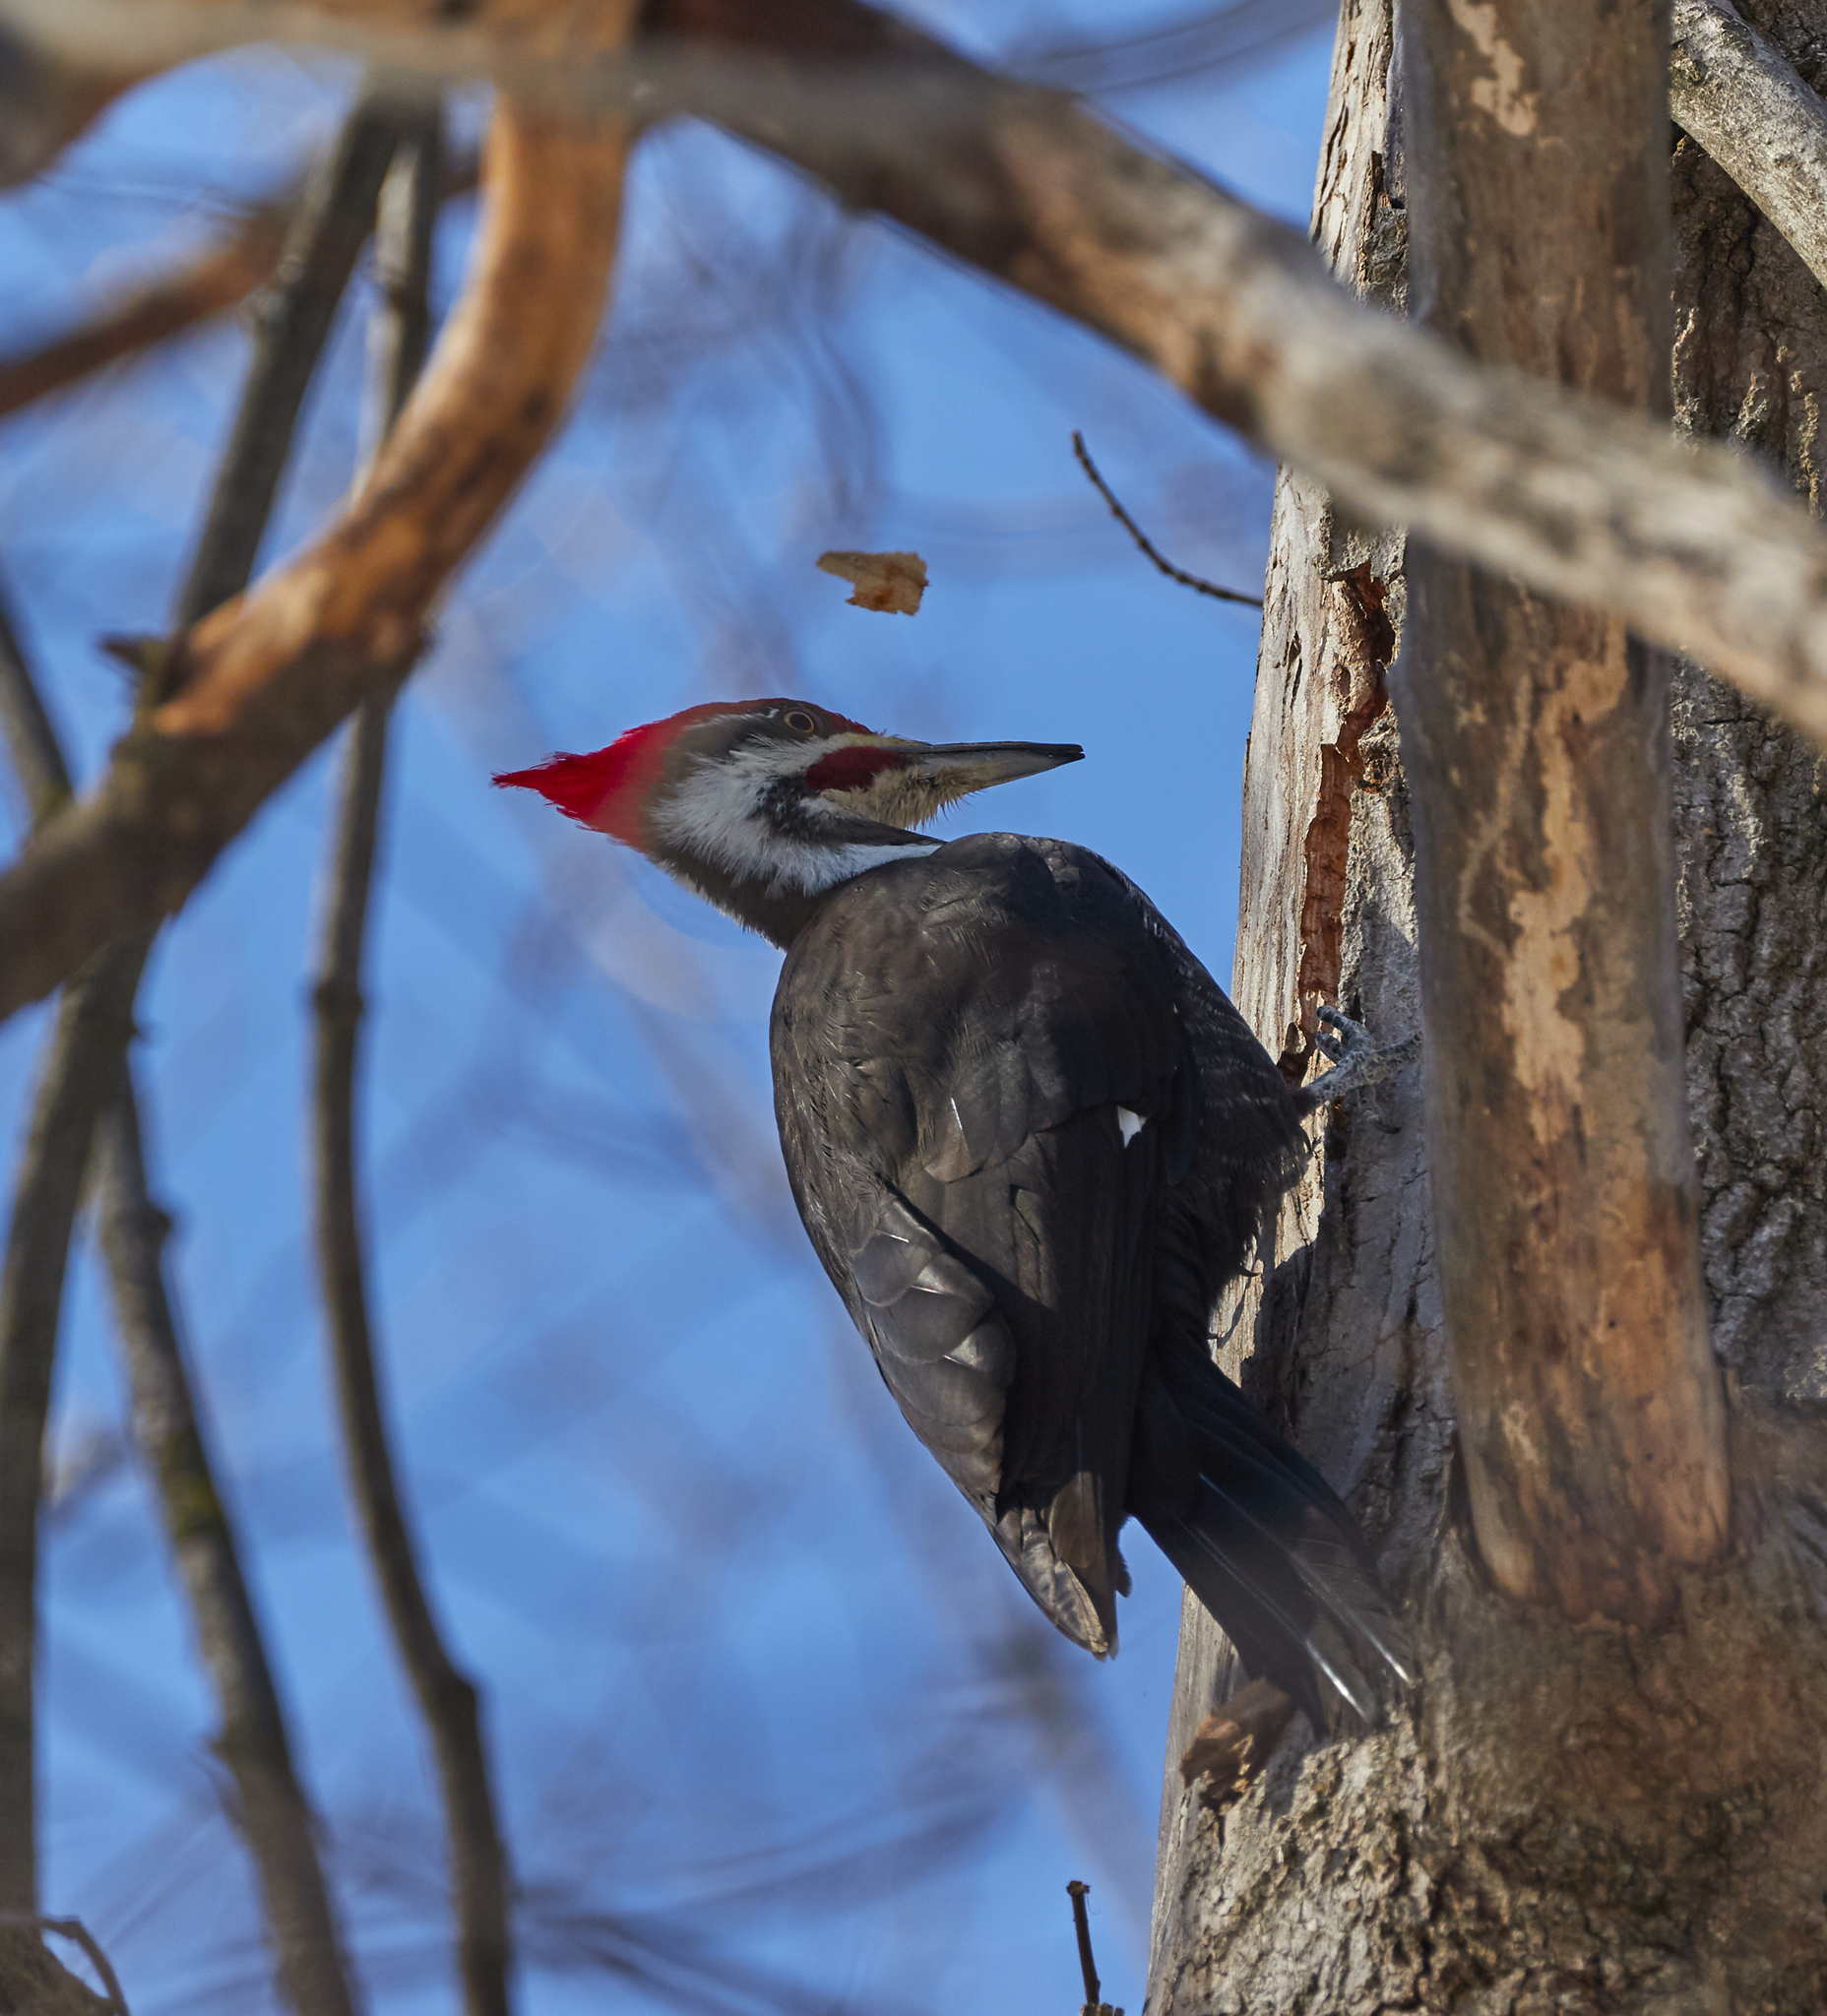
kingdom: Animalia
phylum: Chordata
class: Aves
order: Piciformes
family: Picidae
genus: Dryocopus
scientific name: Dryocopus pileatus
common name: Pileated woodpecker
